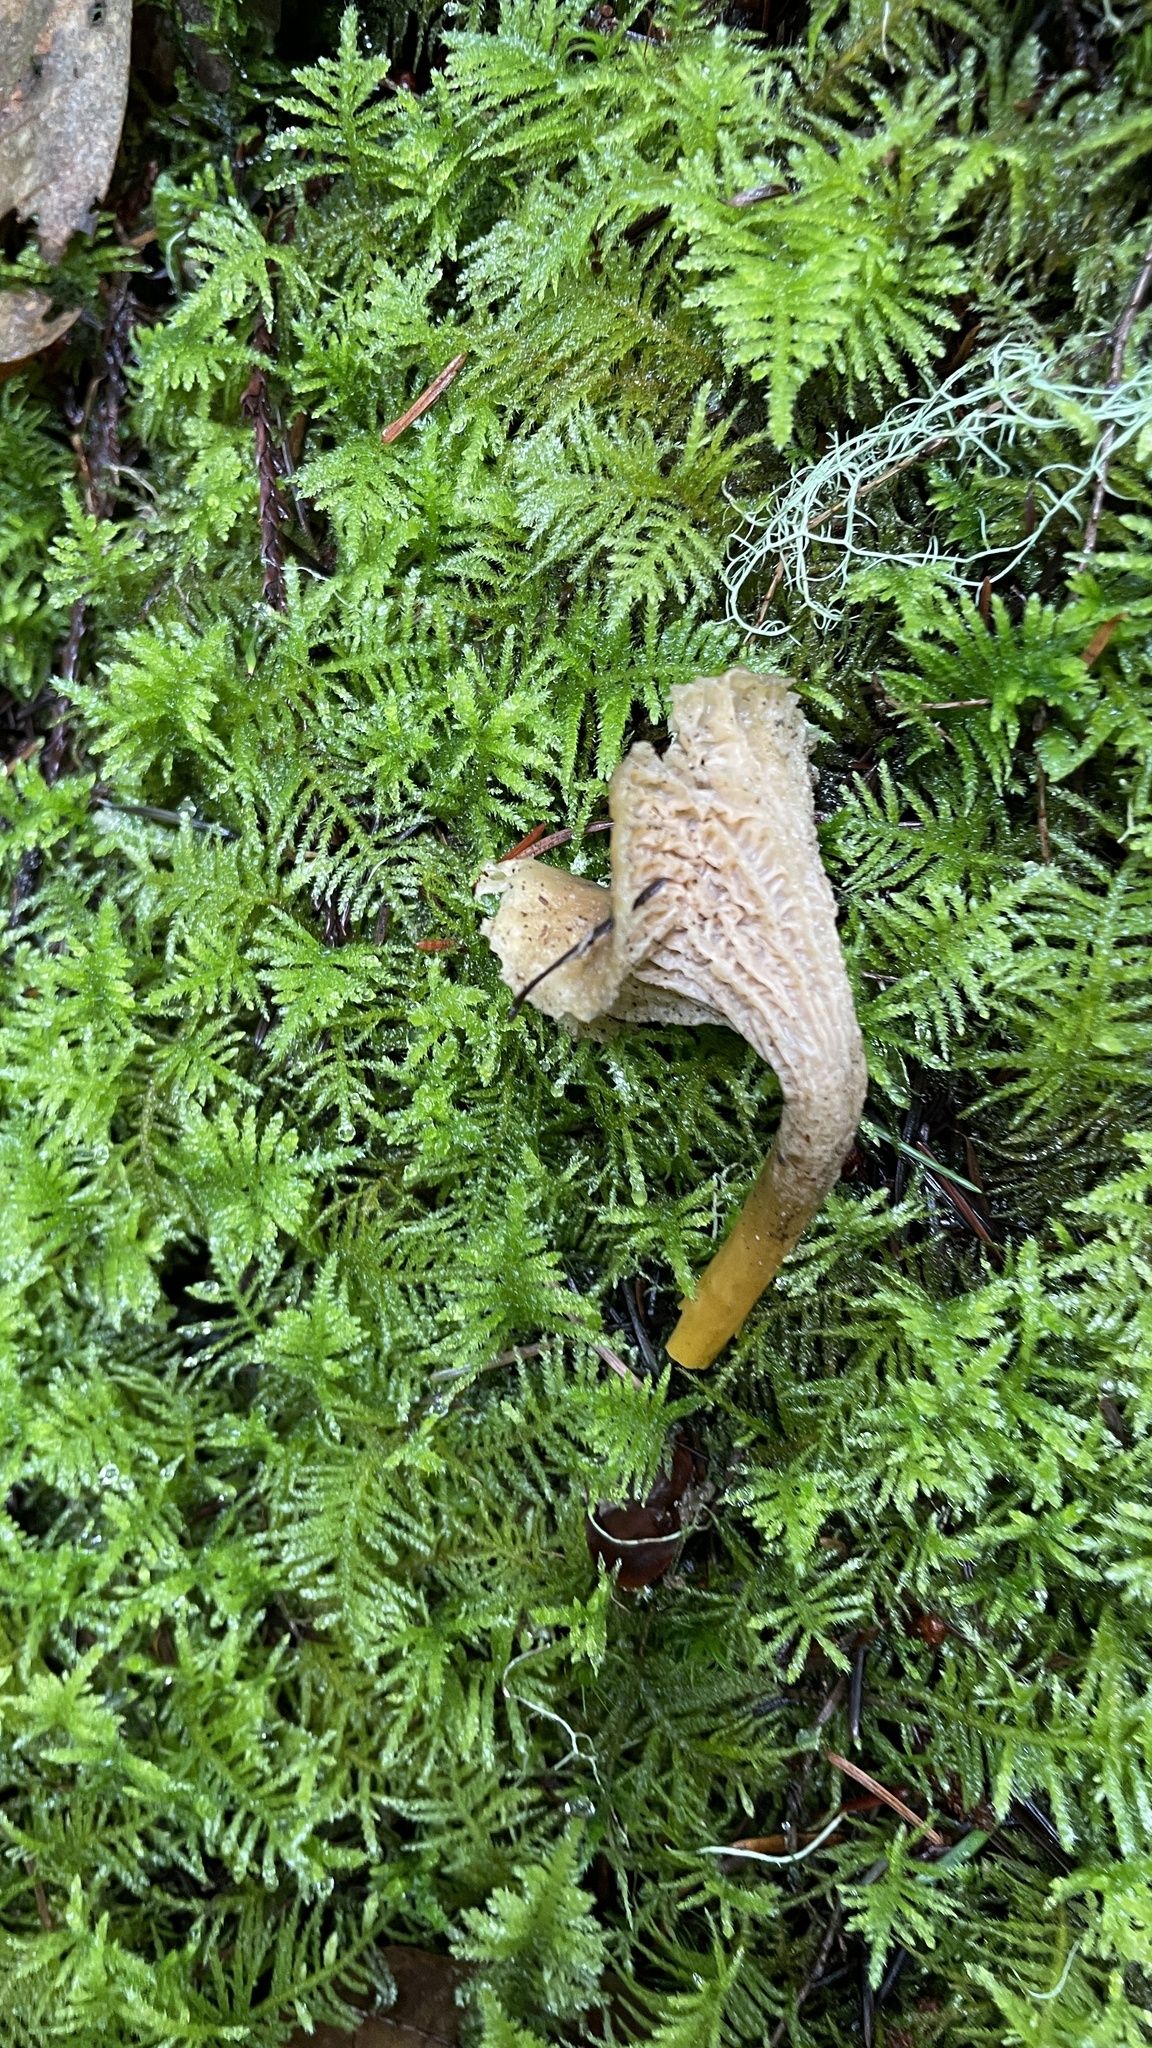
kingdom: Fungi
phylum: Basidiomycota
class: Agaricomycetes
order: Cantharellales
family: Hydnaceae
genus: Craterellus
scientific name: Craterellus tubaeformis
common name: Yellowfoot
